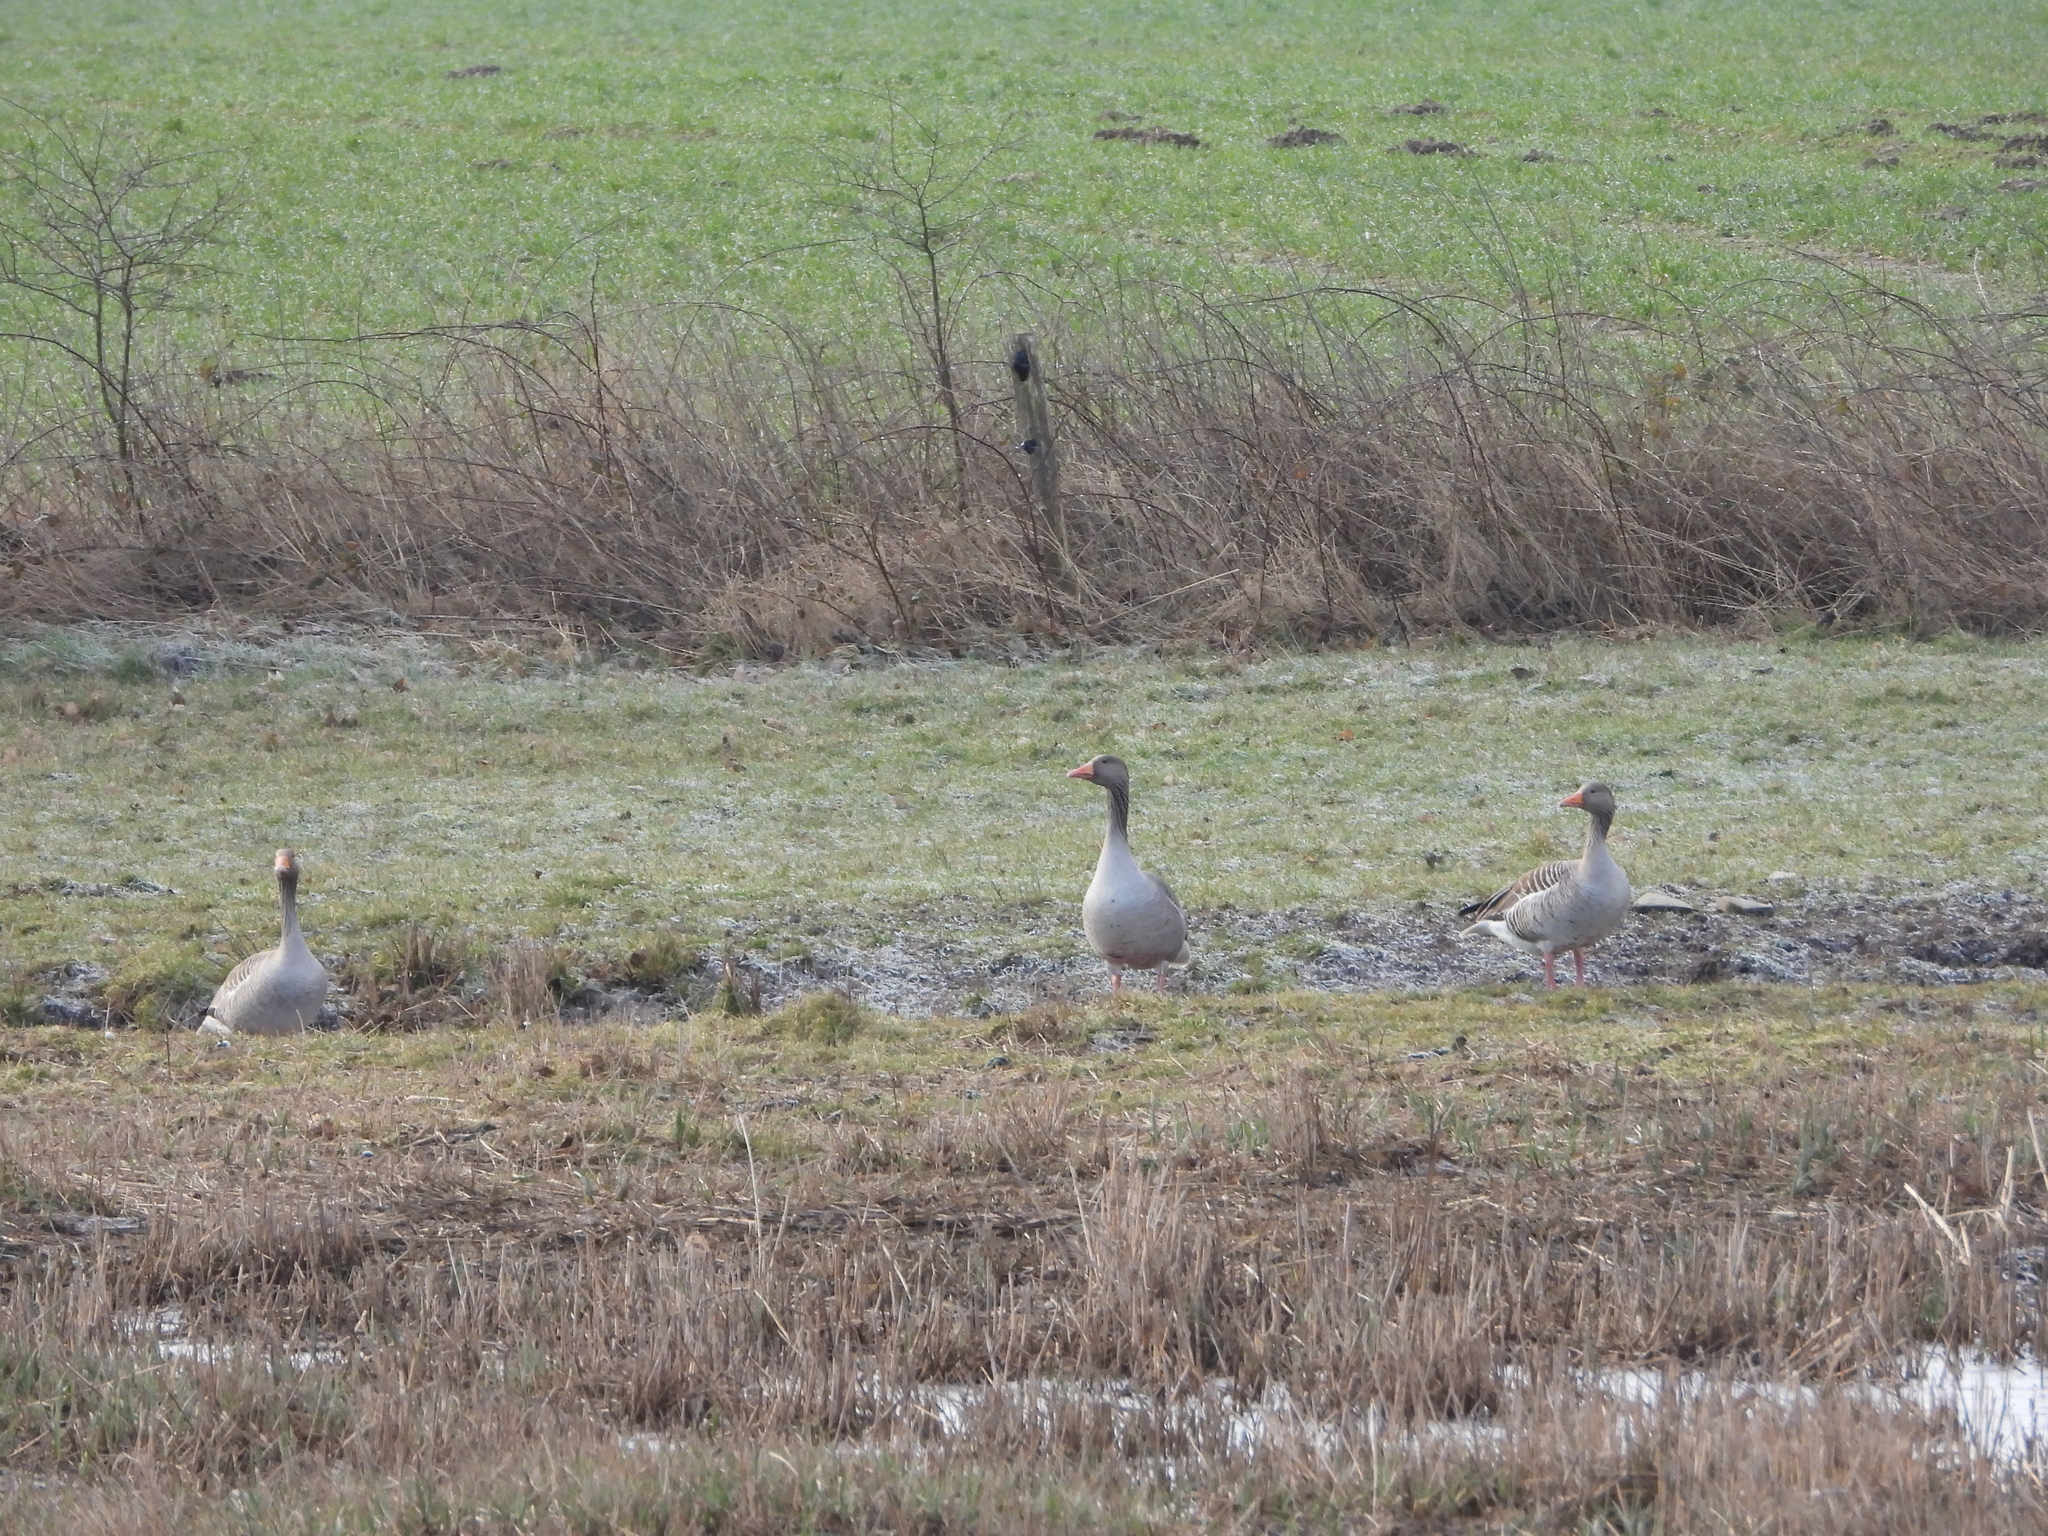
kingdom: Animalia
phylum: Chordata
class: Aves
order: Anseriformes
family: Anatidae
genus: Anser
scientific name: Anser anser
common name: Greylag goose
